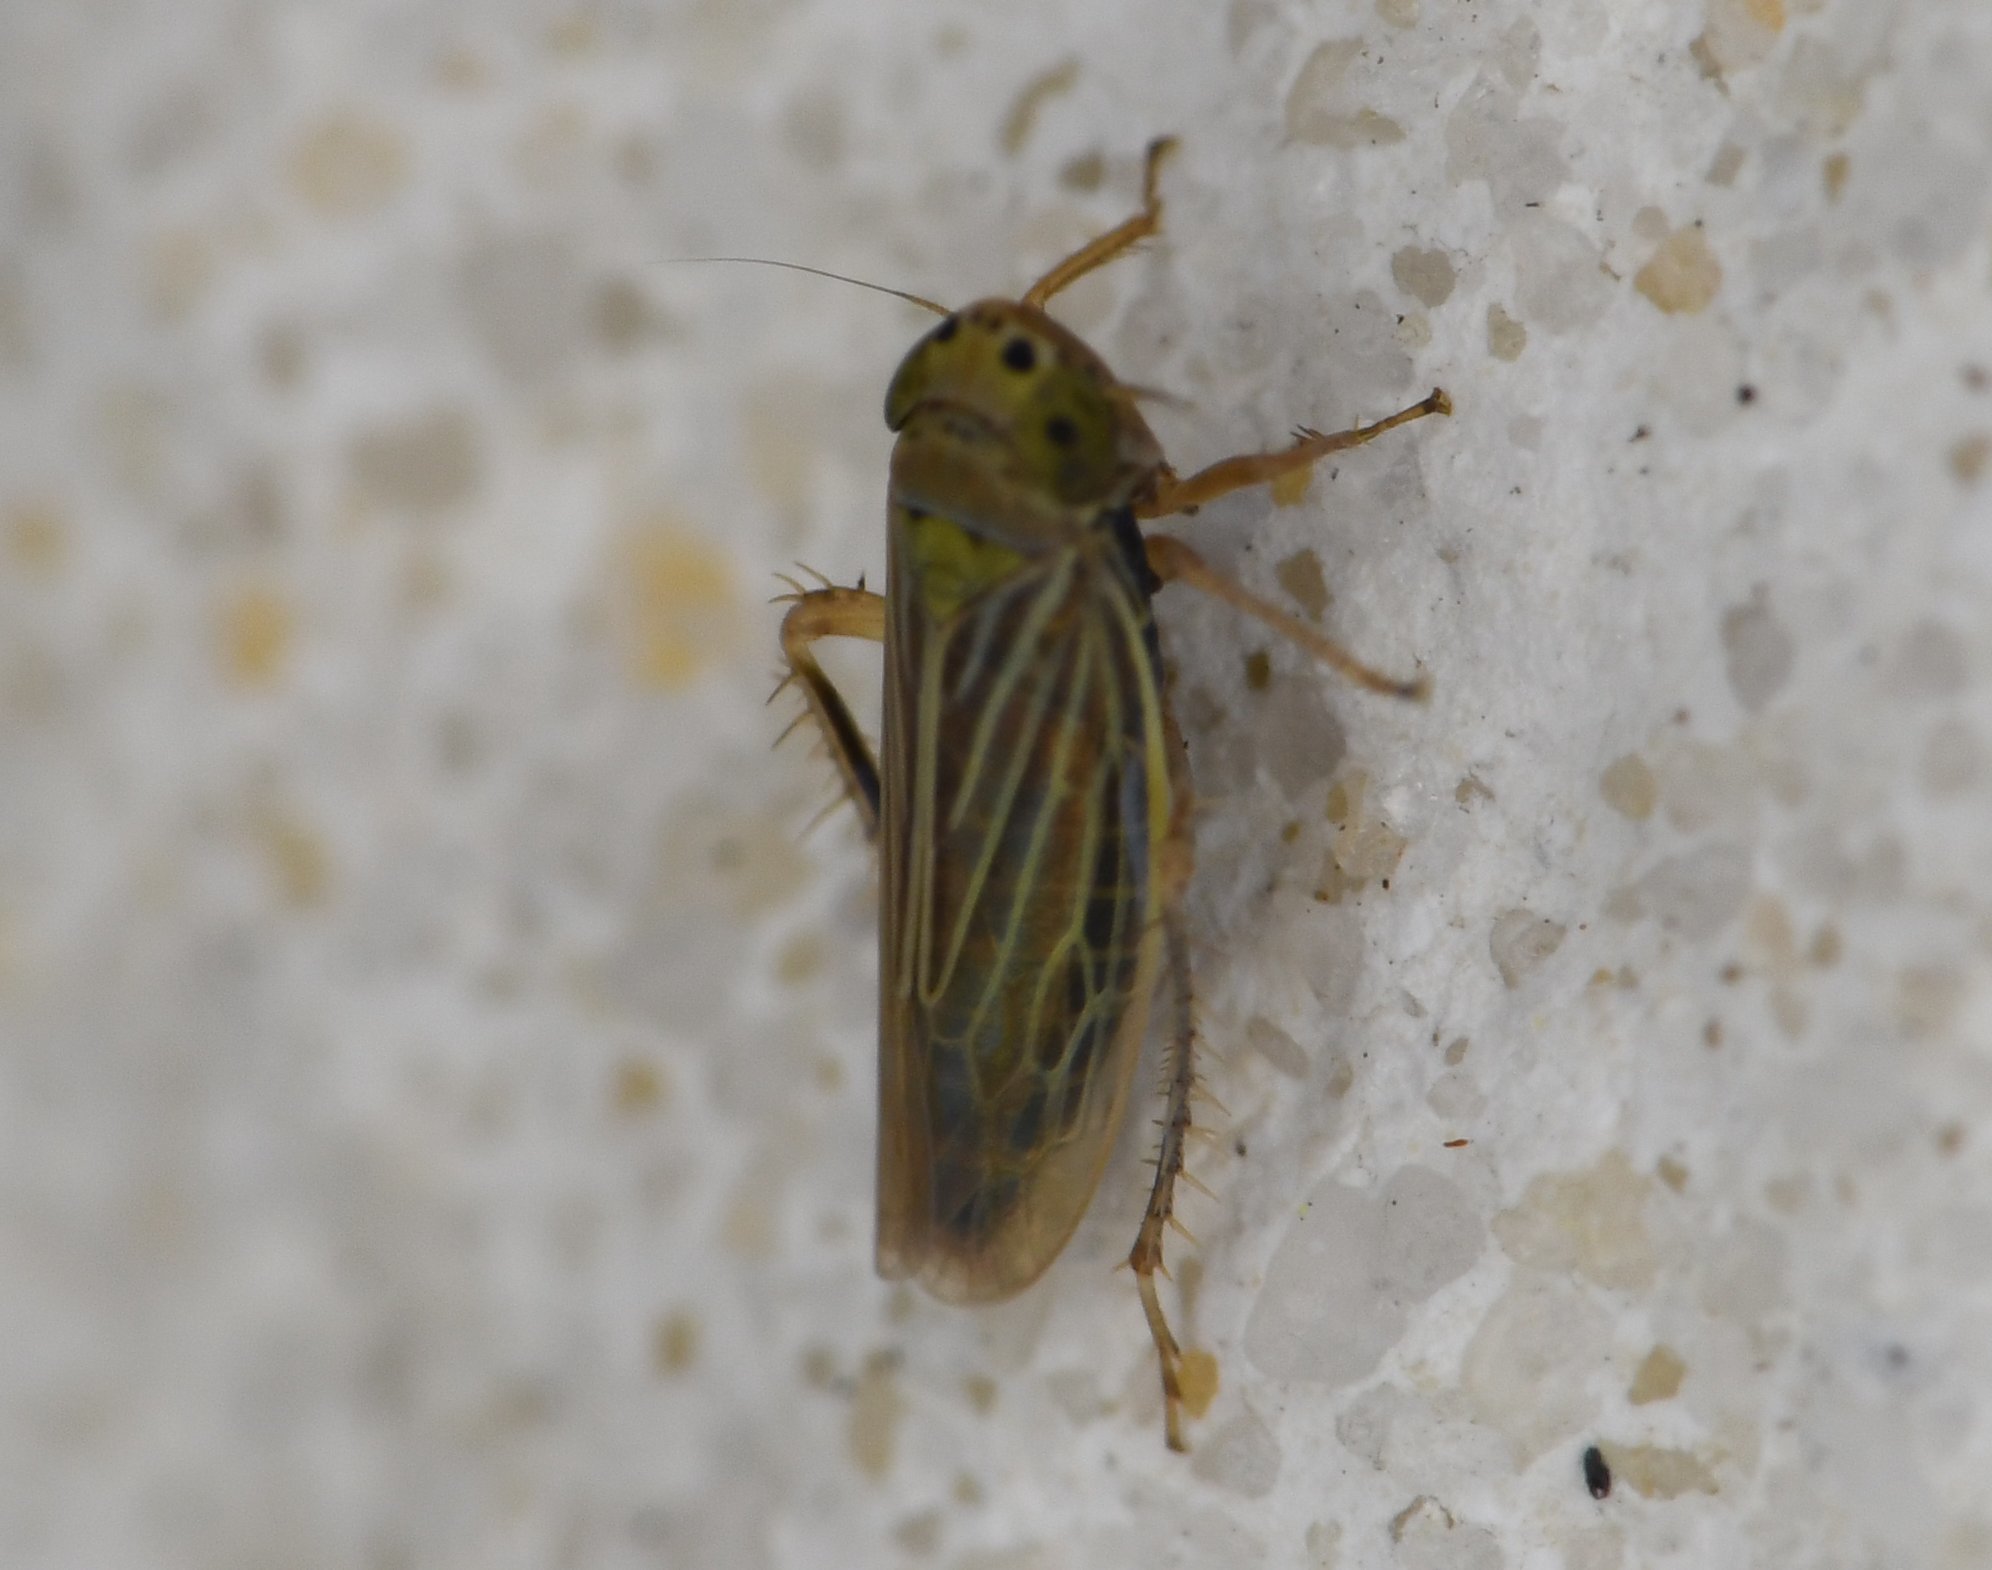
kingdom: Animalia
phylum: Arthropoda
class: Insecta
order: Hemiptera
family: Cicadellidae
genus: Graminella
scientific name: Graminella cognita
